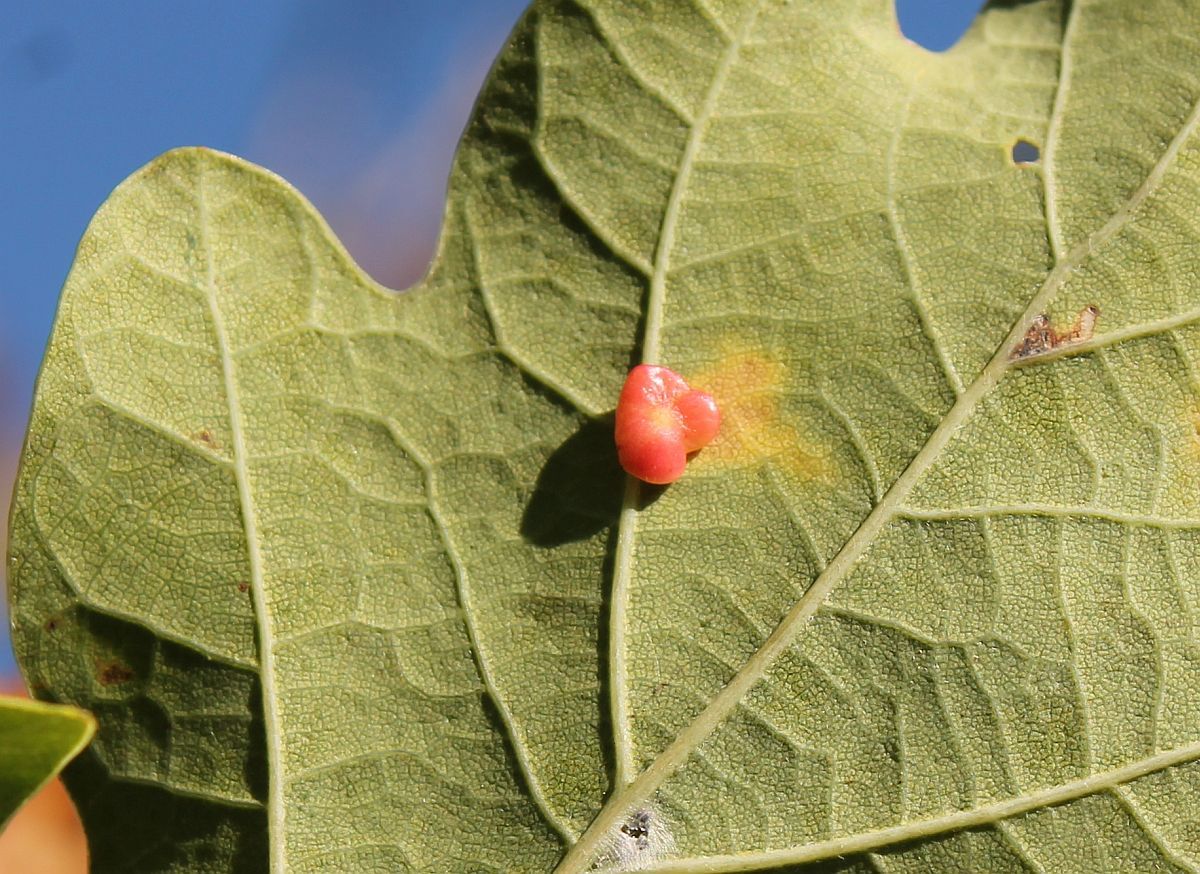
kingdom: Animalia
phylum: Arthropoda
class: Insecta
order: Hymenoptera
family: Cynipidae
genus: Neuroterus
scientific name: Neuroterus albipes
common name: Smooth spangle gall
